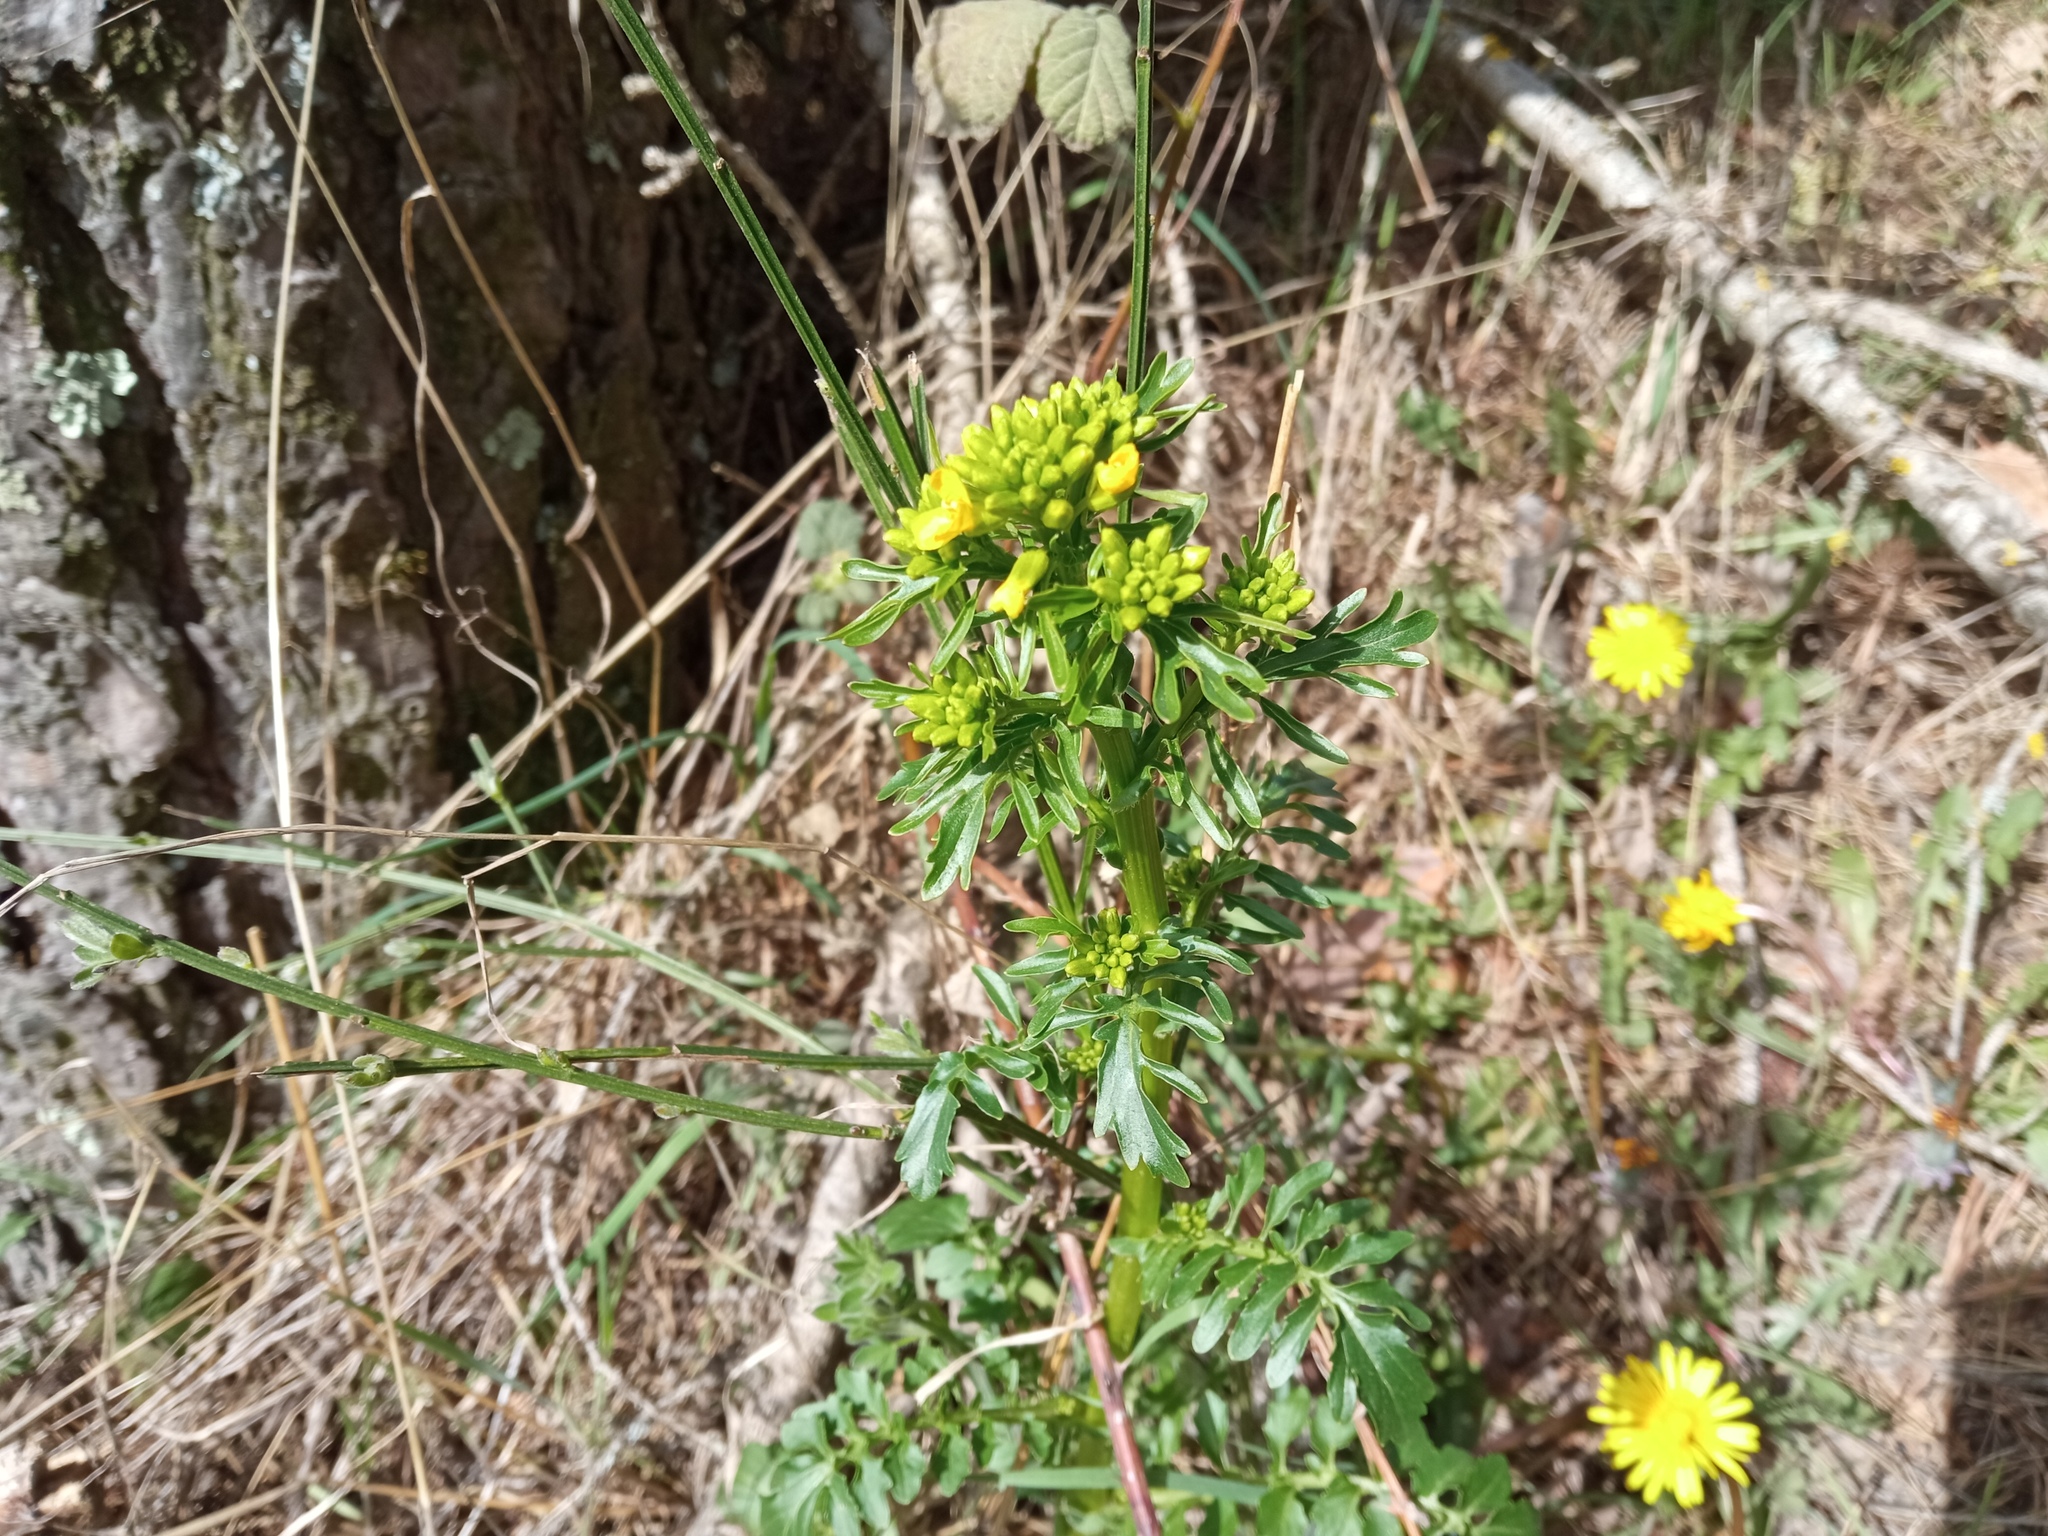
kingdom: Plantae
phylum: Tracheophyta
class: Magnoliopsida
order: Brassicales
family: Brassicaceae
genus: Barbarea
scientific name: Barbarea verna
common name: American cress
